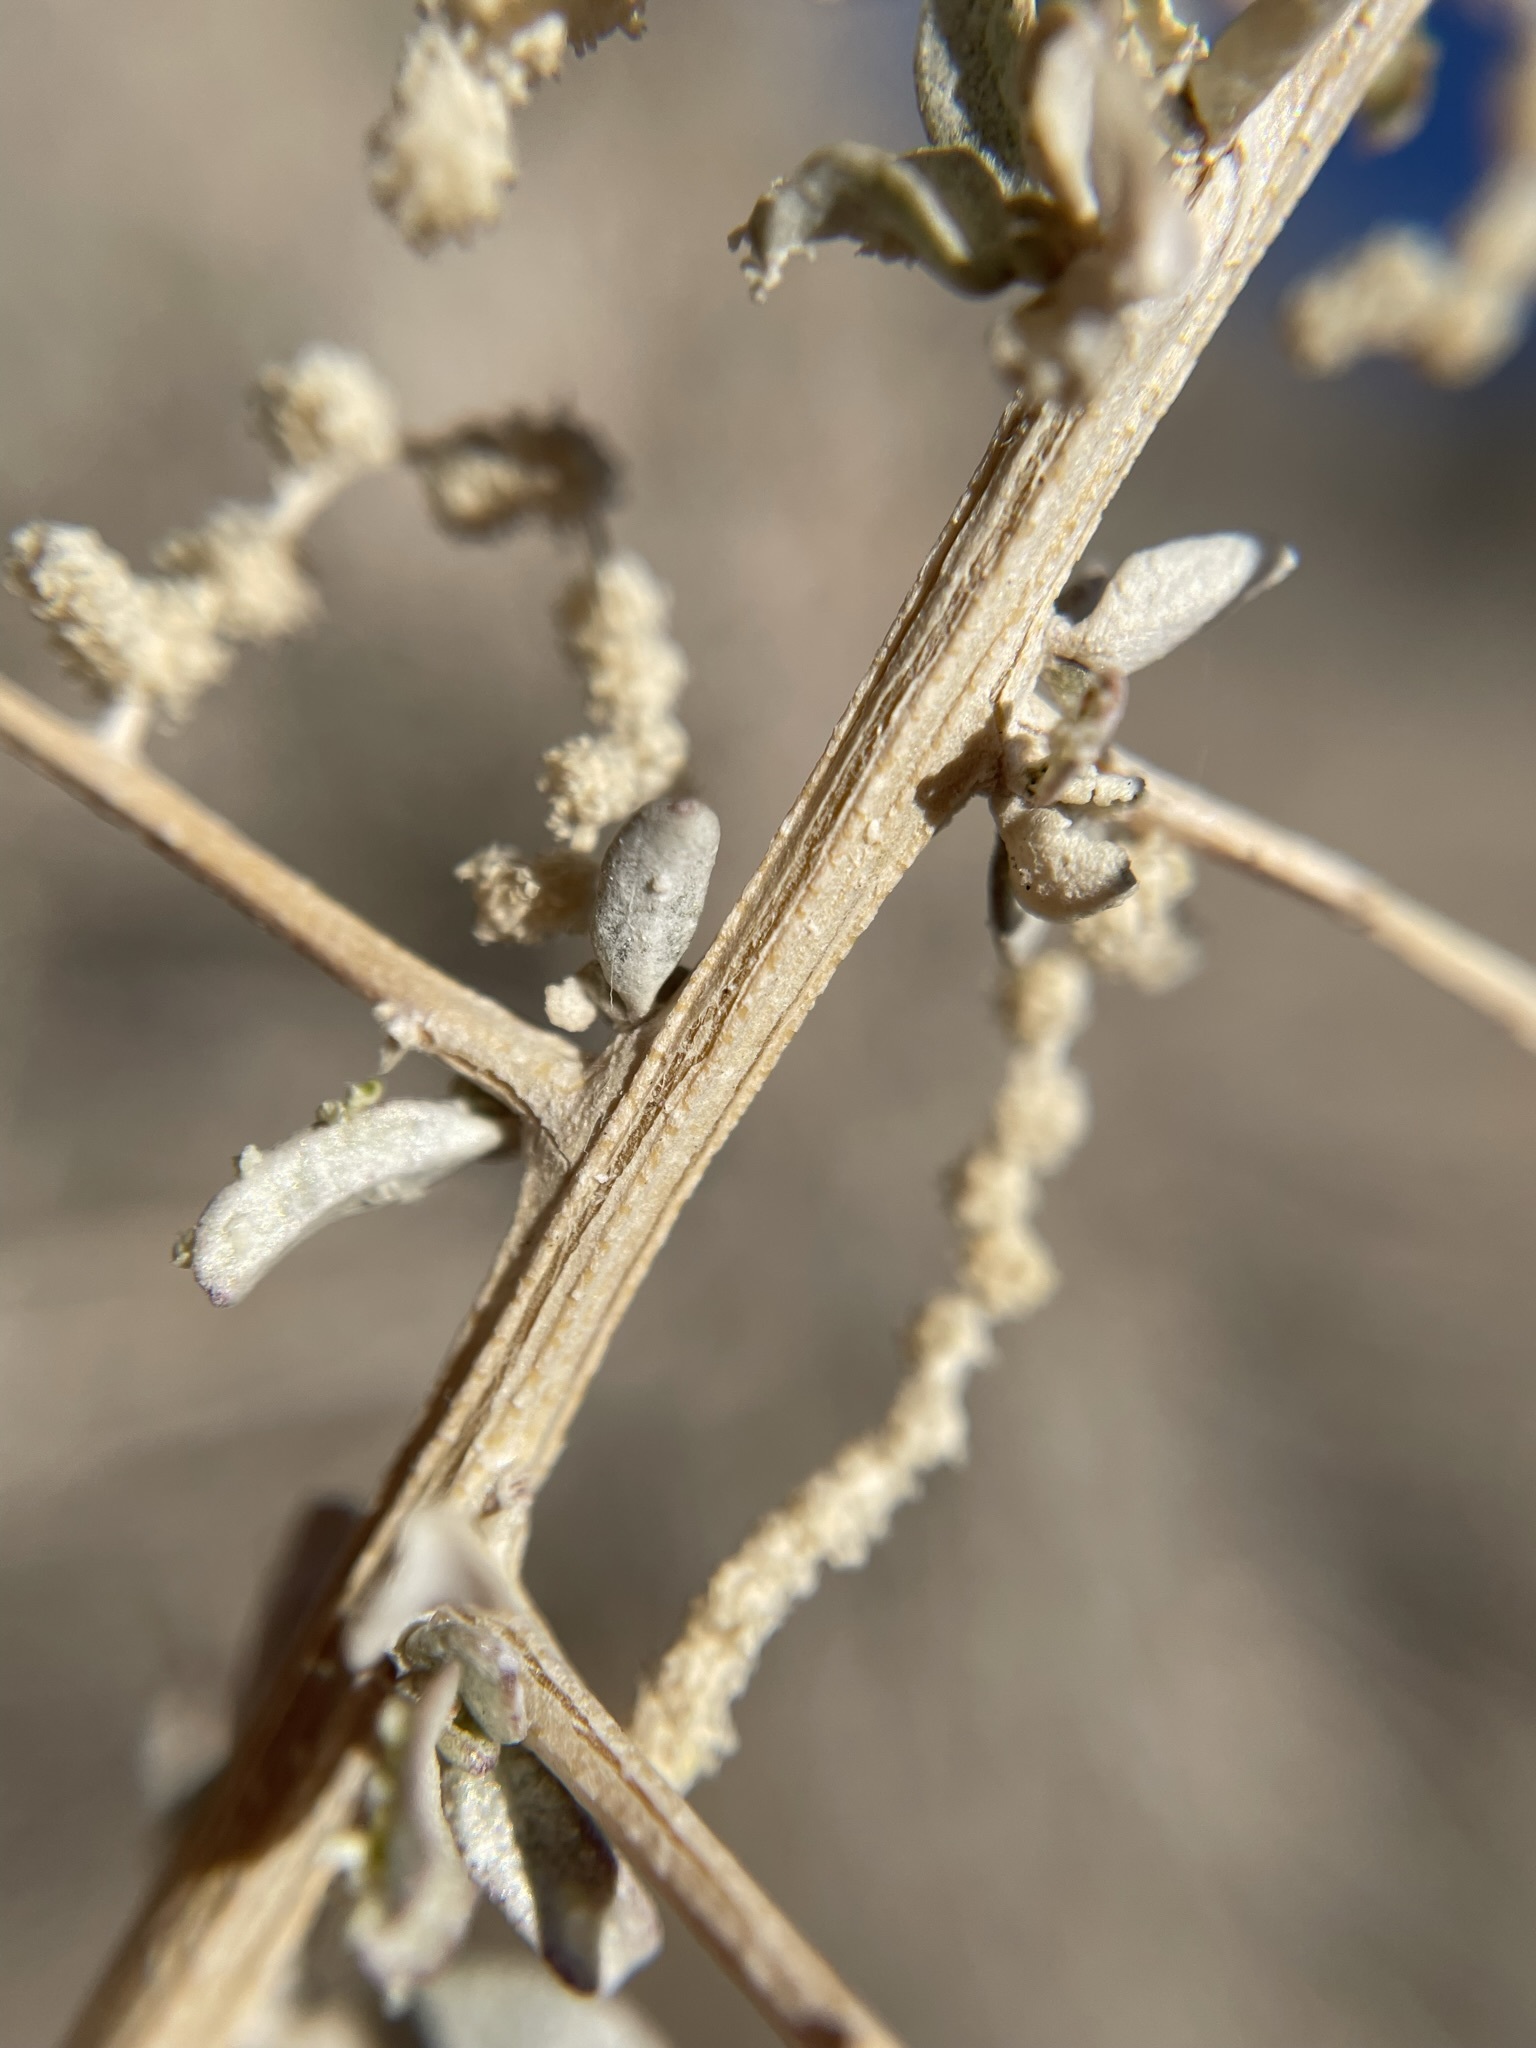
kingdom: Plantae
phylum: Tracheophyta
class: Magnoliopsida
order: Caryophyllales
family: Amaranthaceae
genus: Atriplex
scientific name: Atriplex torreyi
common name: Torrey's saltbush
